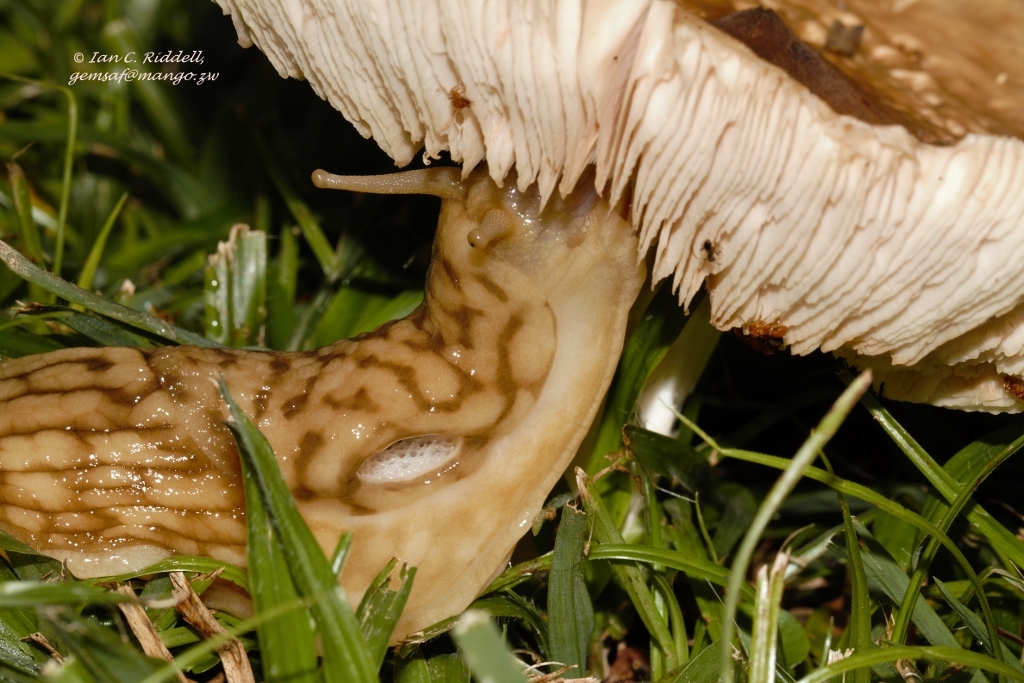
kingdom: Animalia
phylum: Mollusca
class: Gastropoda
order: Stylommatophora
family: Urocyclidae
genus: Polytoxon
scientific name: Polytoxon robustum
